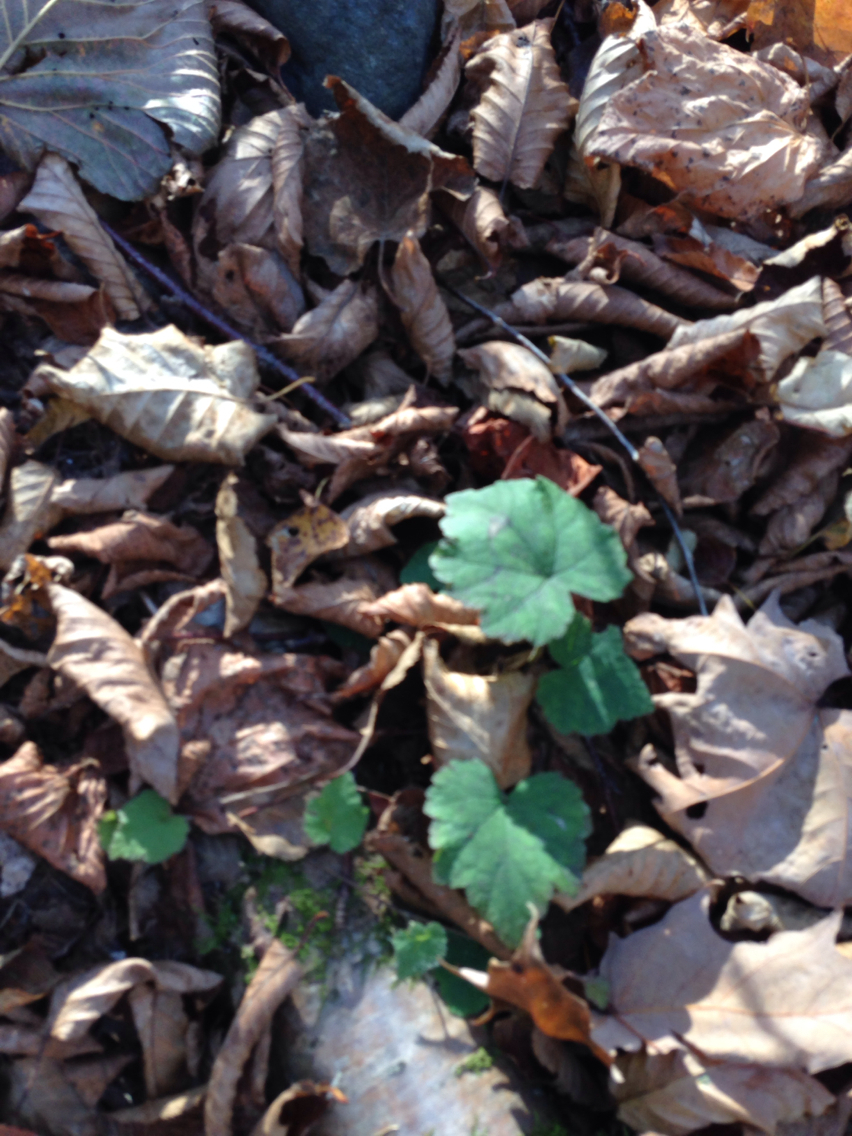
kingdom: Plantae
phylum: Tracheophyta
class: Magnoliopsida
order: Saxifragales
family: Saxifragaceae
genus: Tiarella
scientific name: Tiarella stolonifera
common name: Stoloniferous foamflower
